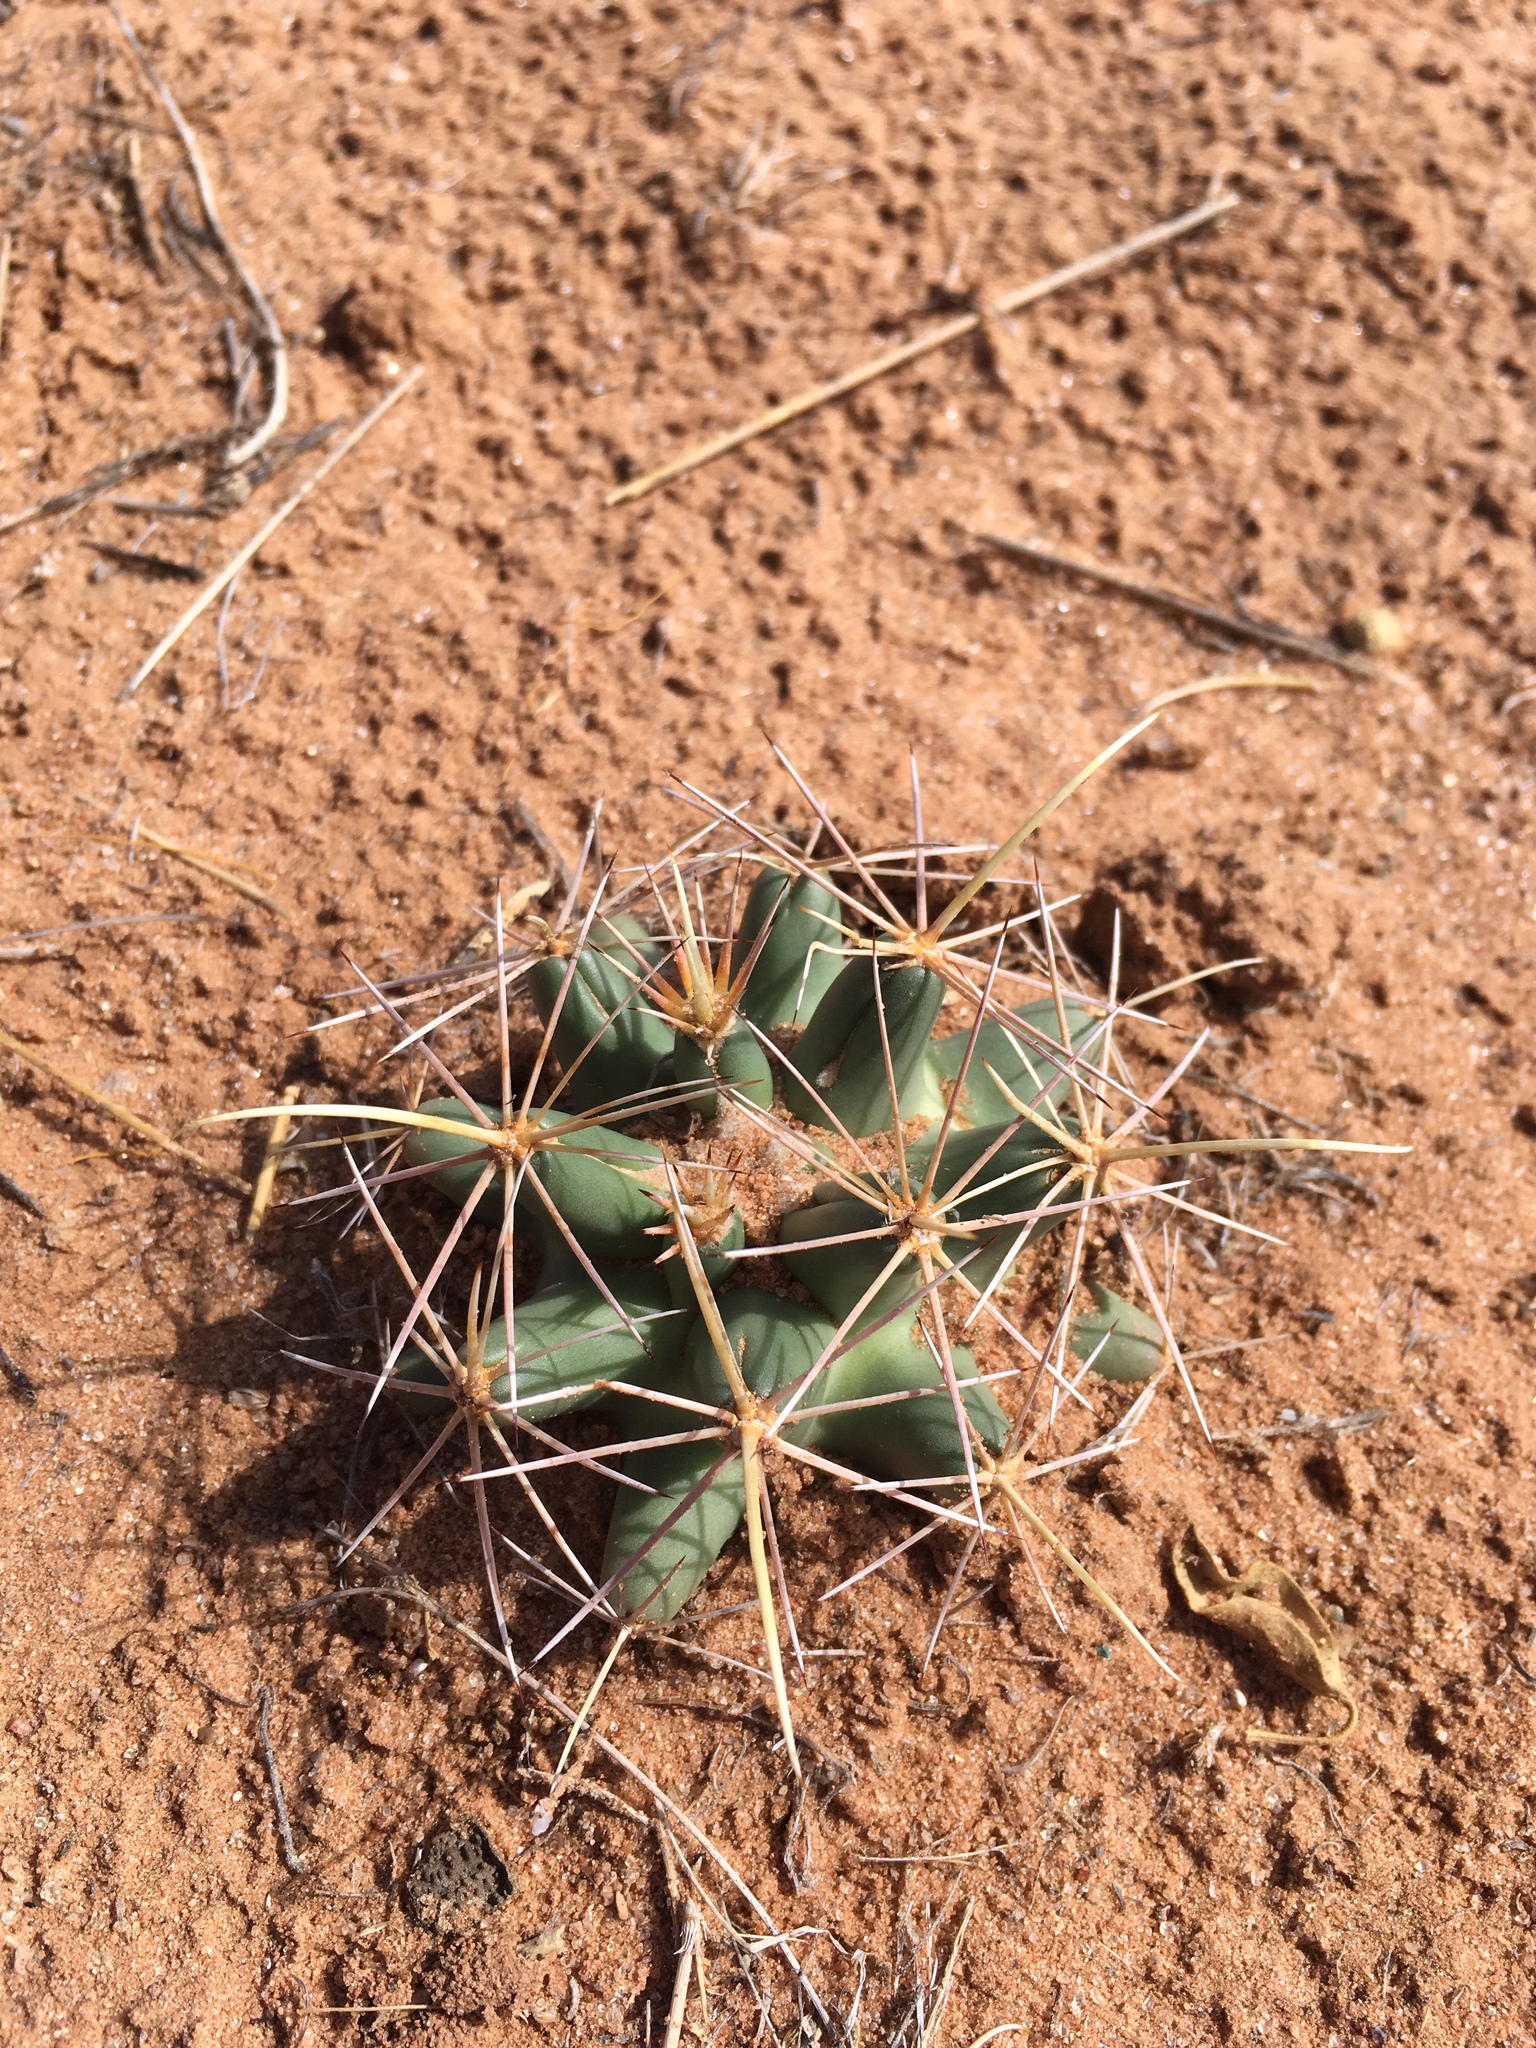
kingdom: Plantae
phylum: Tracheophyta
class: Magnoliopsida
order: Caryophyllales
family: Cactaceae
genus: Coryphantha
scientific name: Coryphantha robustispina
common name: Pima pineapple cactus
